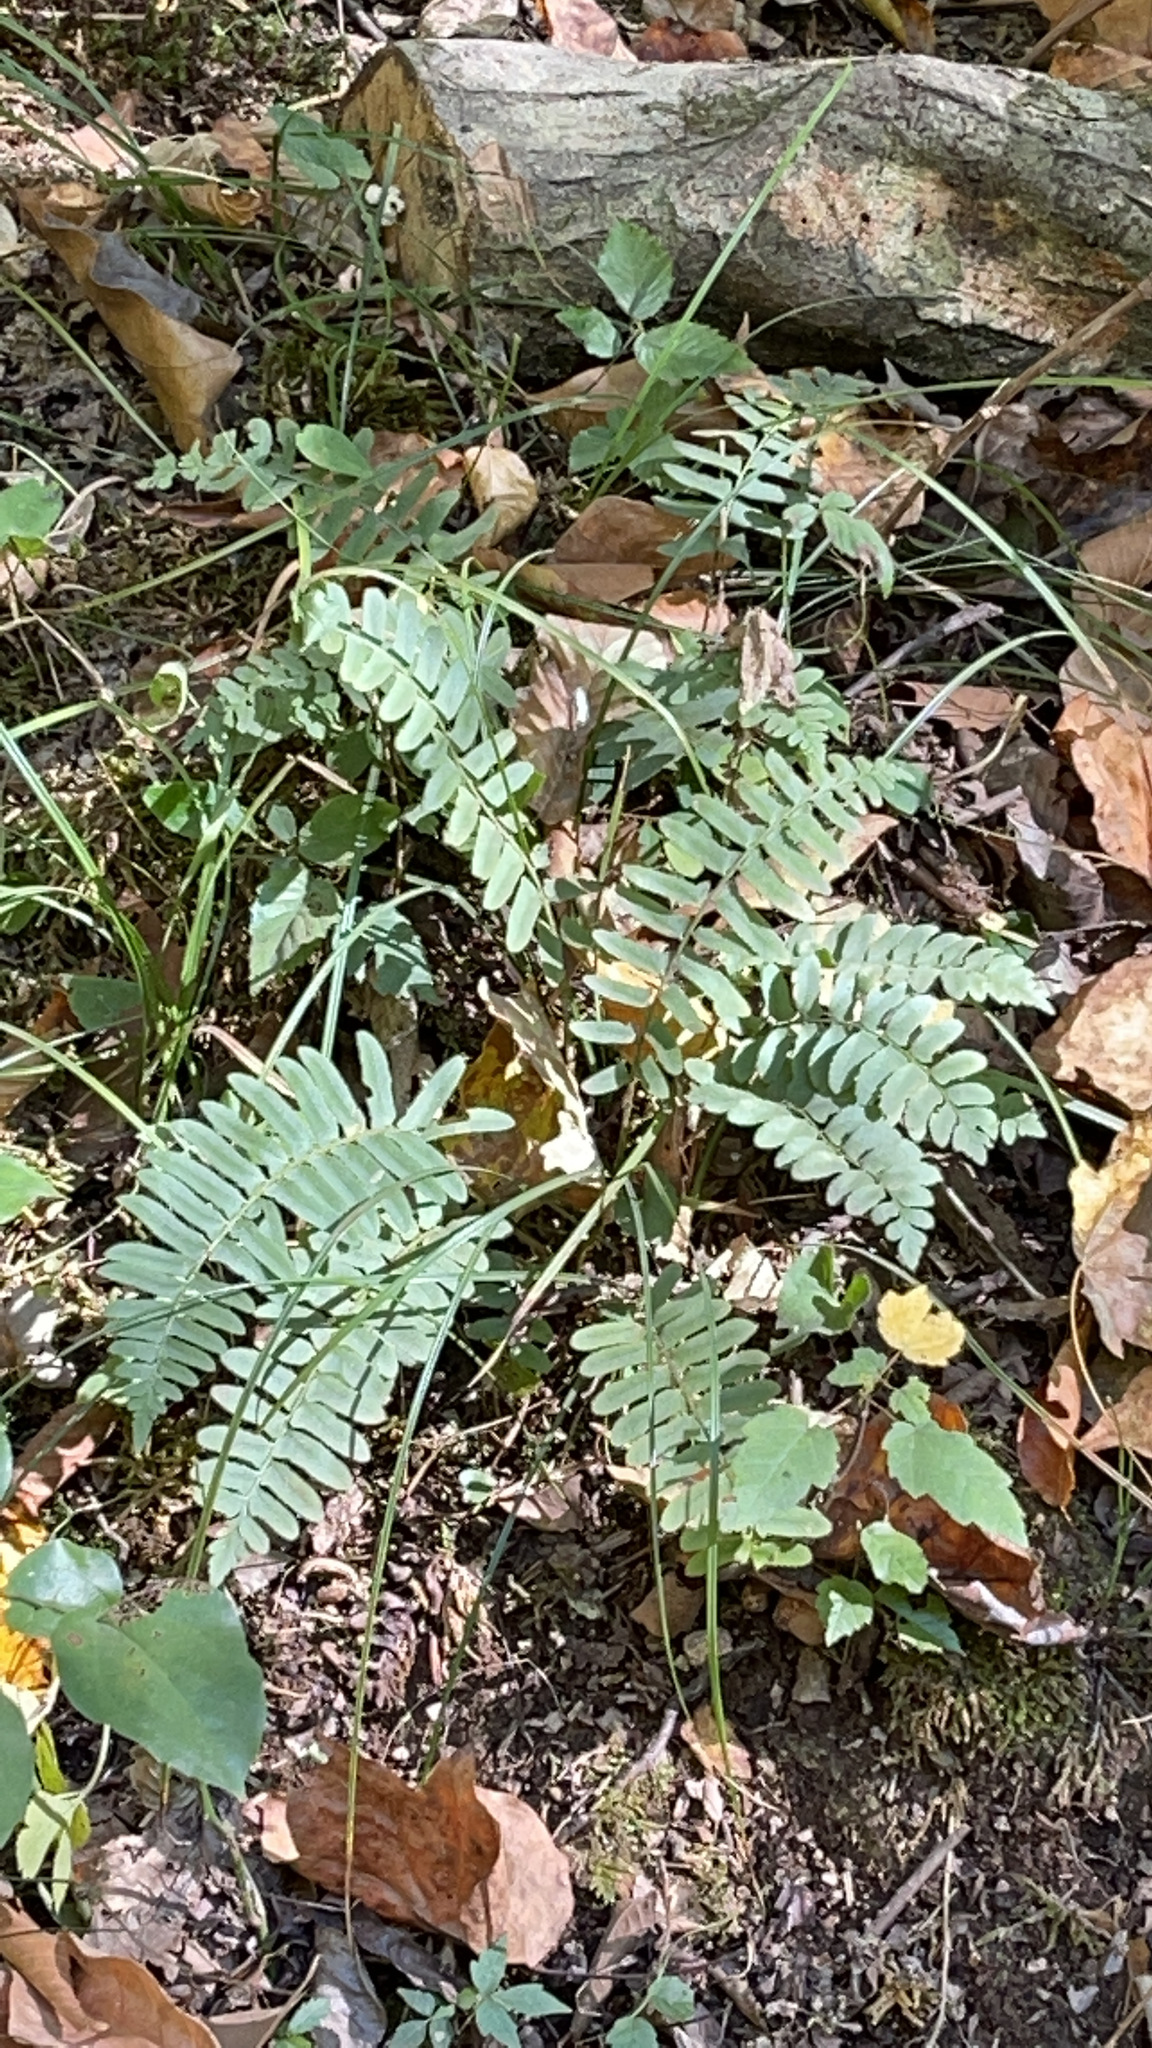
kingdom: Plantae
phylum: Tracheophyta
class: Polypodiopsida
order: Polypodiales
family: Dryopteridaceae
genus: Polystichum
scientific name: Polystichum acrostichoides
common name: Christmas fern
